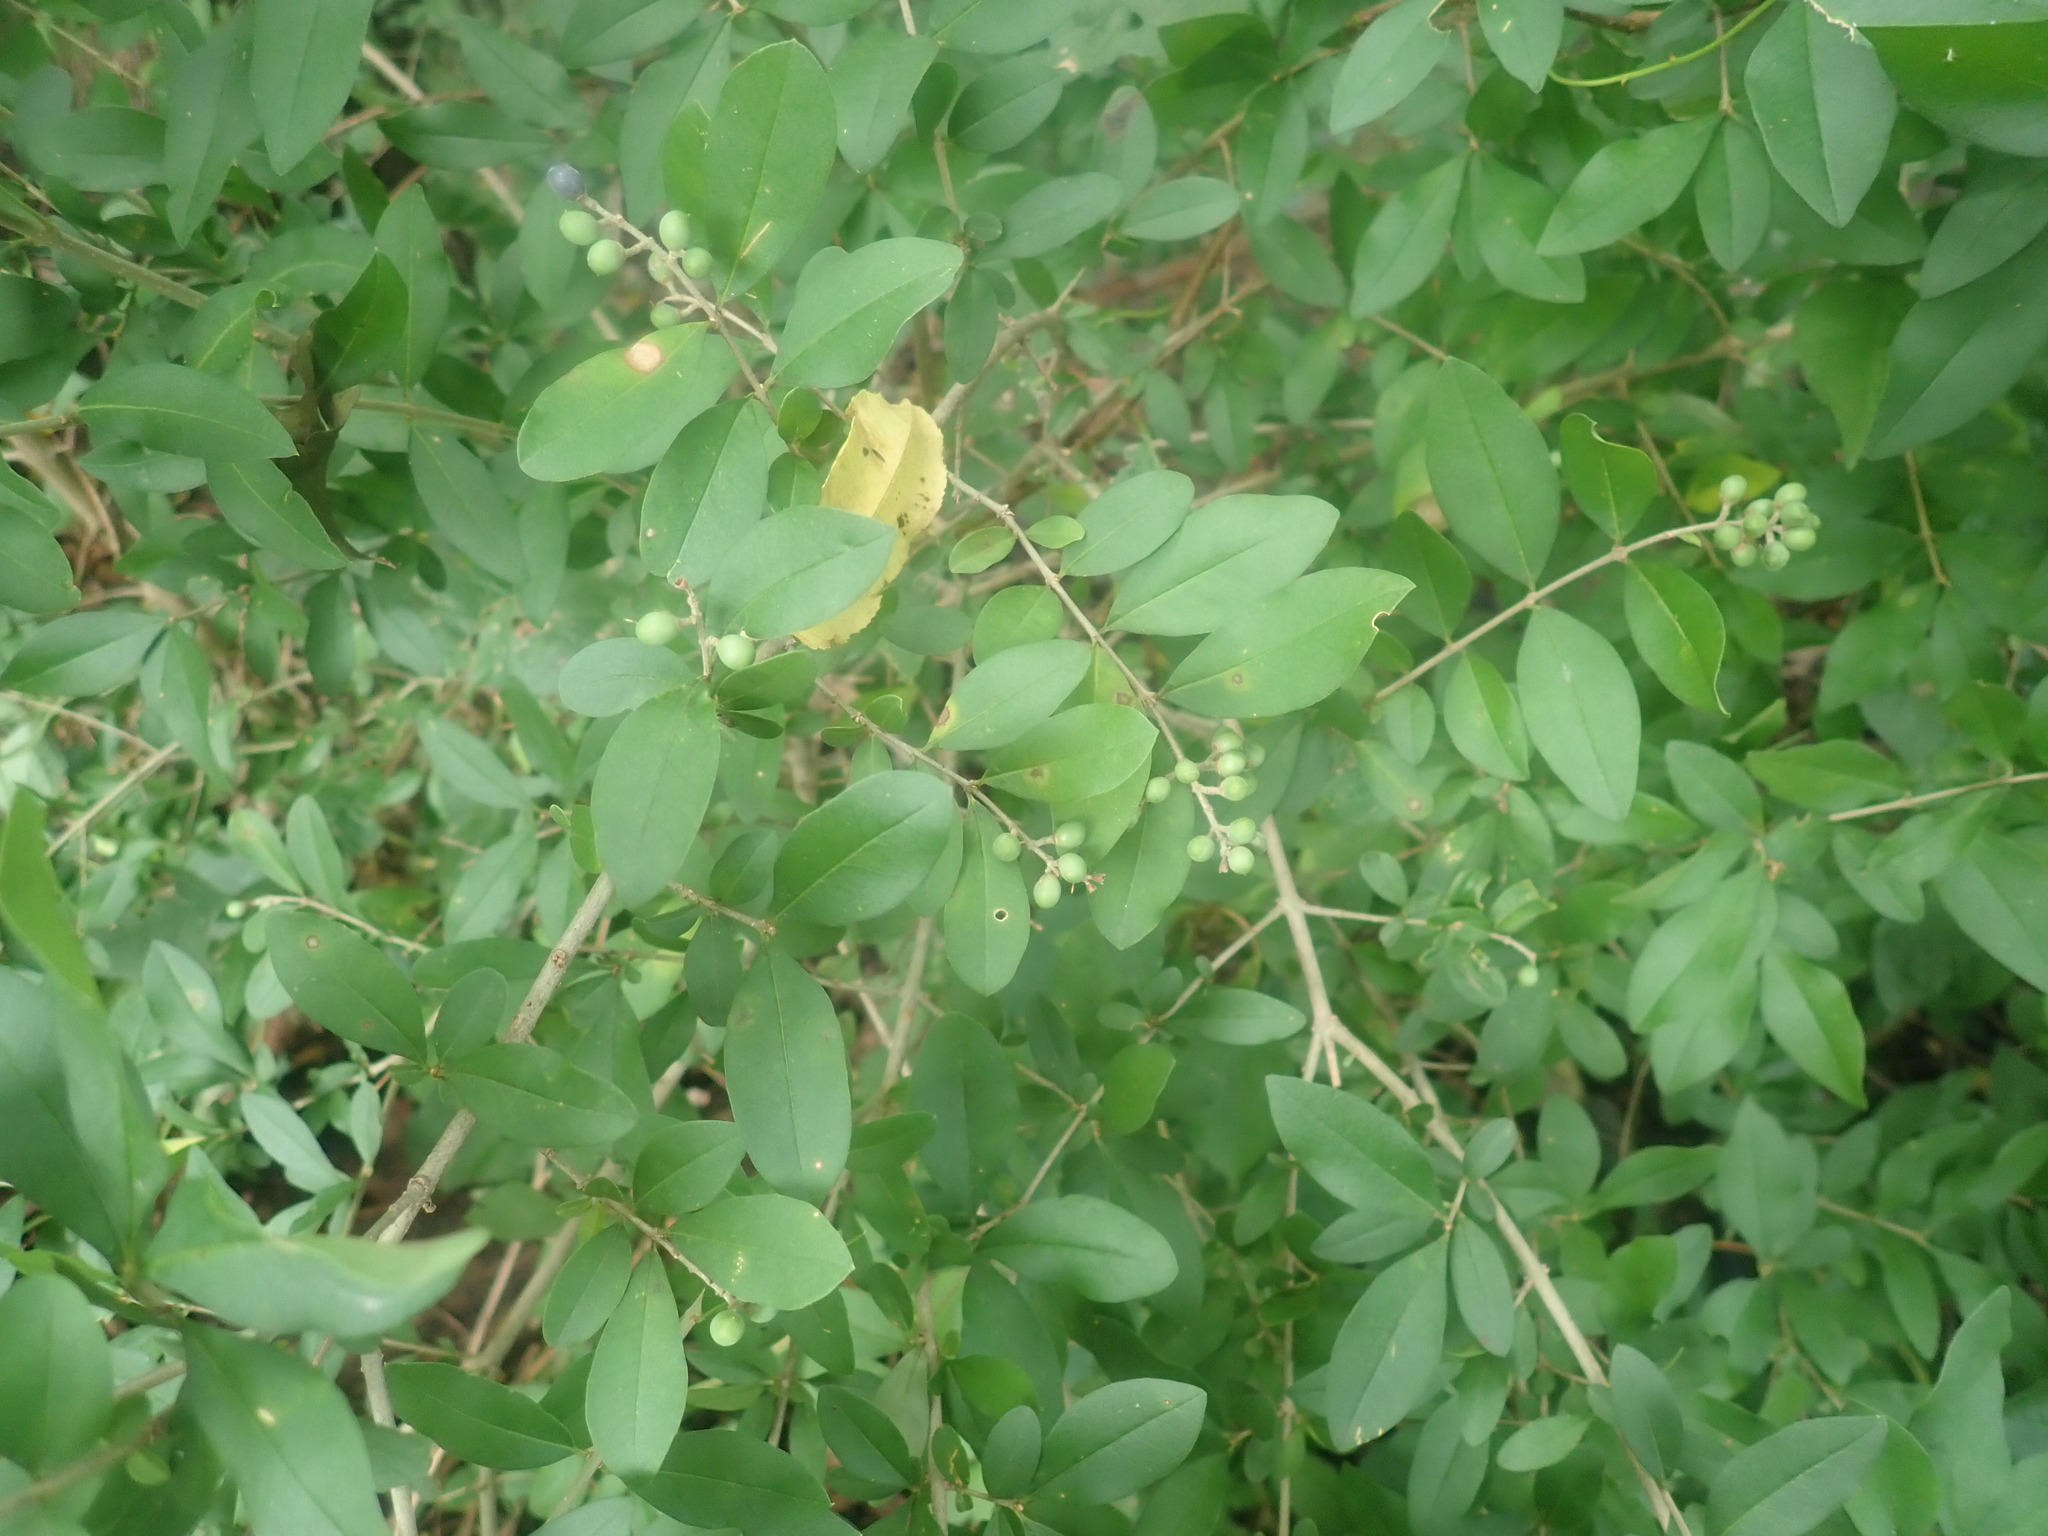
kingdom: Plantae
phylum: Tracheophyta
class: Magnoliopsida
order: Lamiales
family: Oleaceae
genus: Ligustrum
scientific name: Ligustrum
